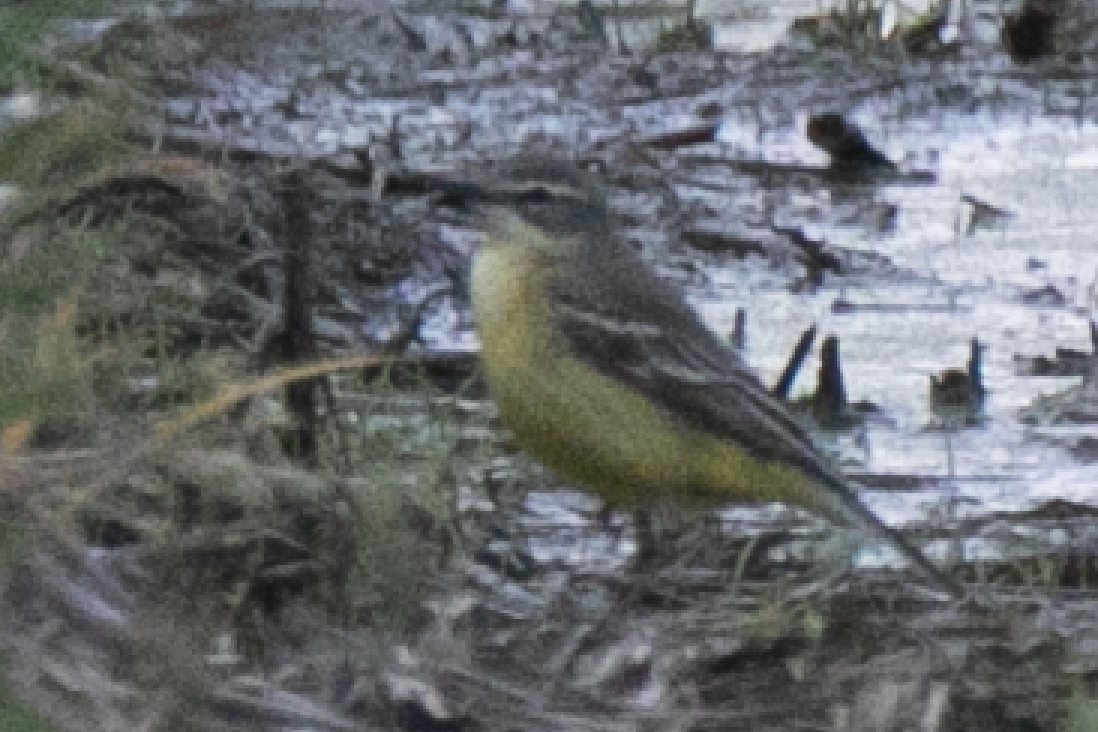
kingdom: Animalia
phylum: Chordata
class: Aves
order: Passeriformes
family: Motacillidae
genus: Motacilla
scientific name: Motacilla flava
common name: Western yellow wagtail
